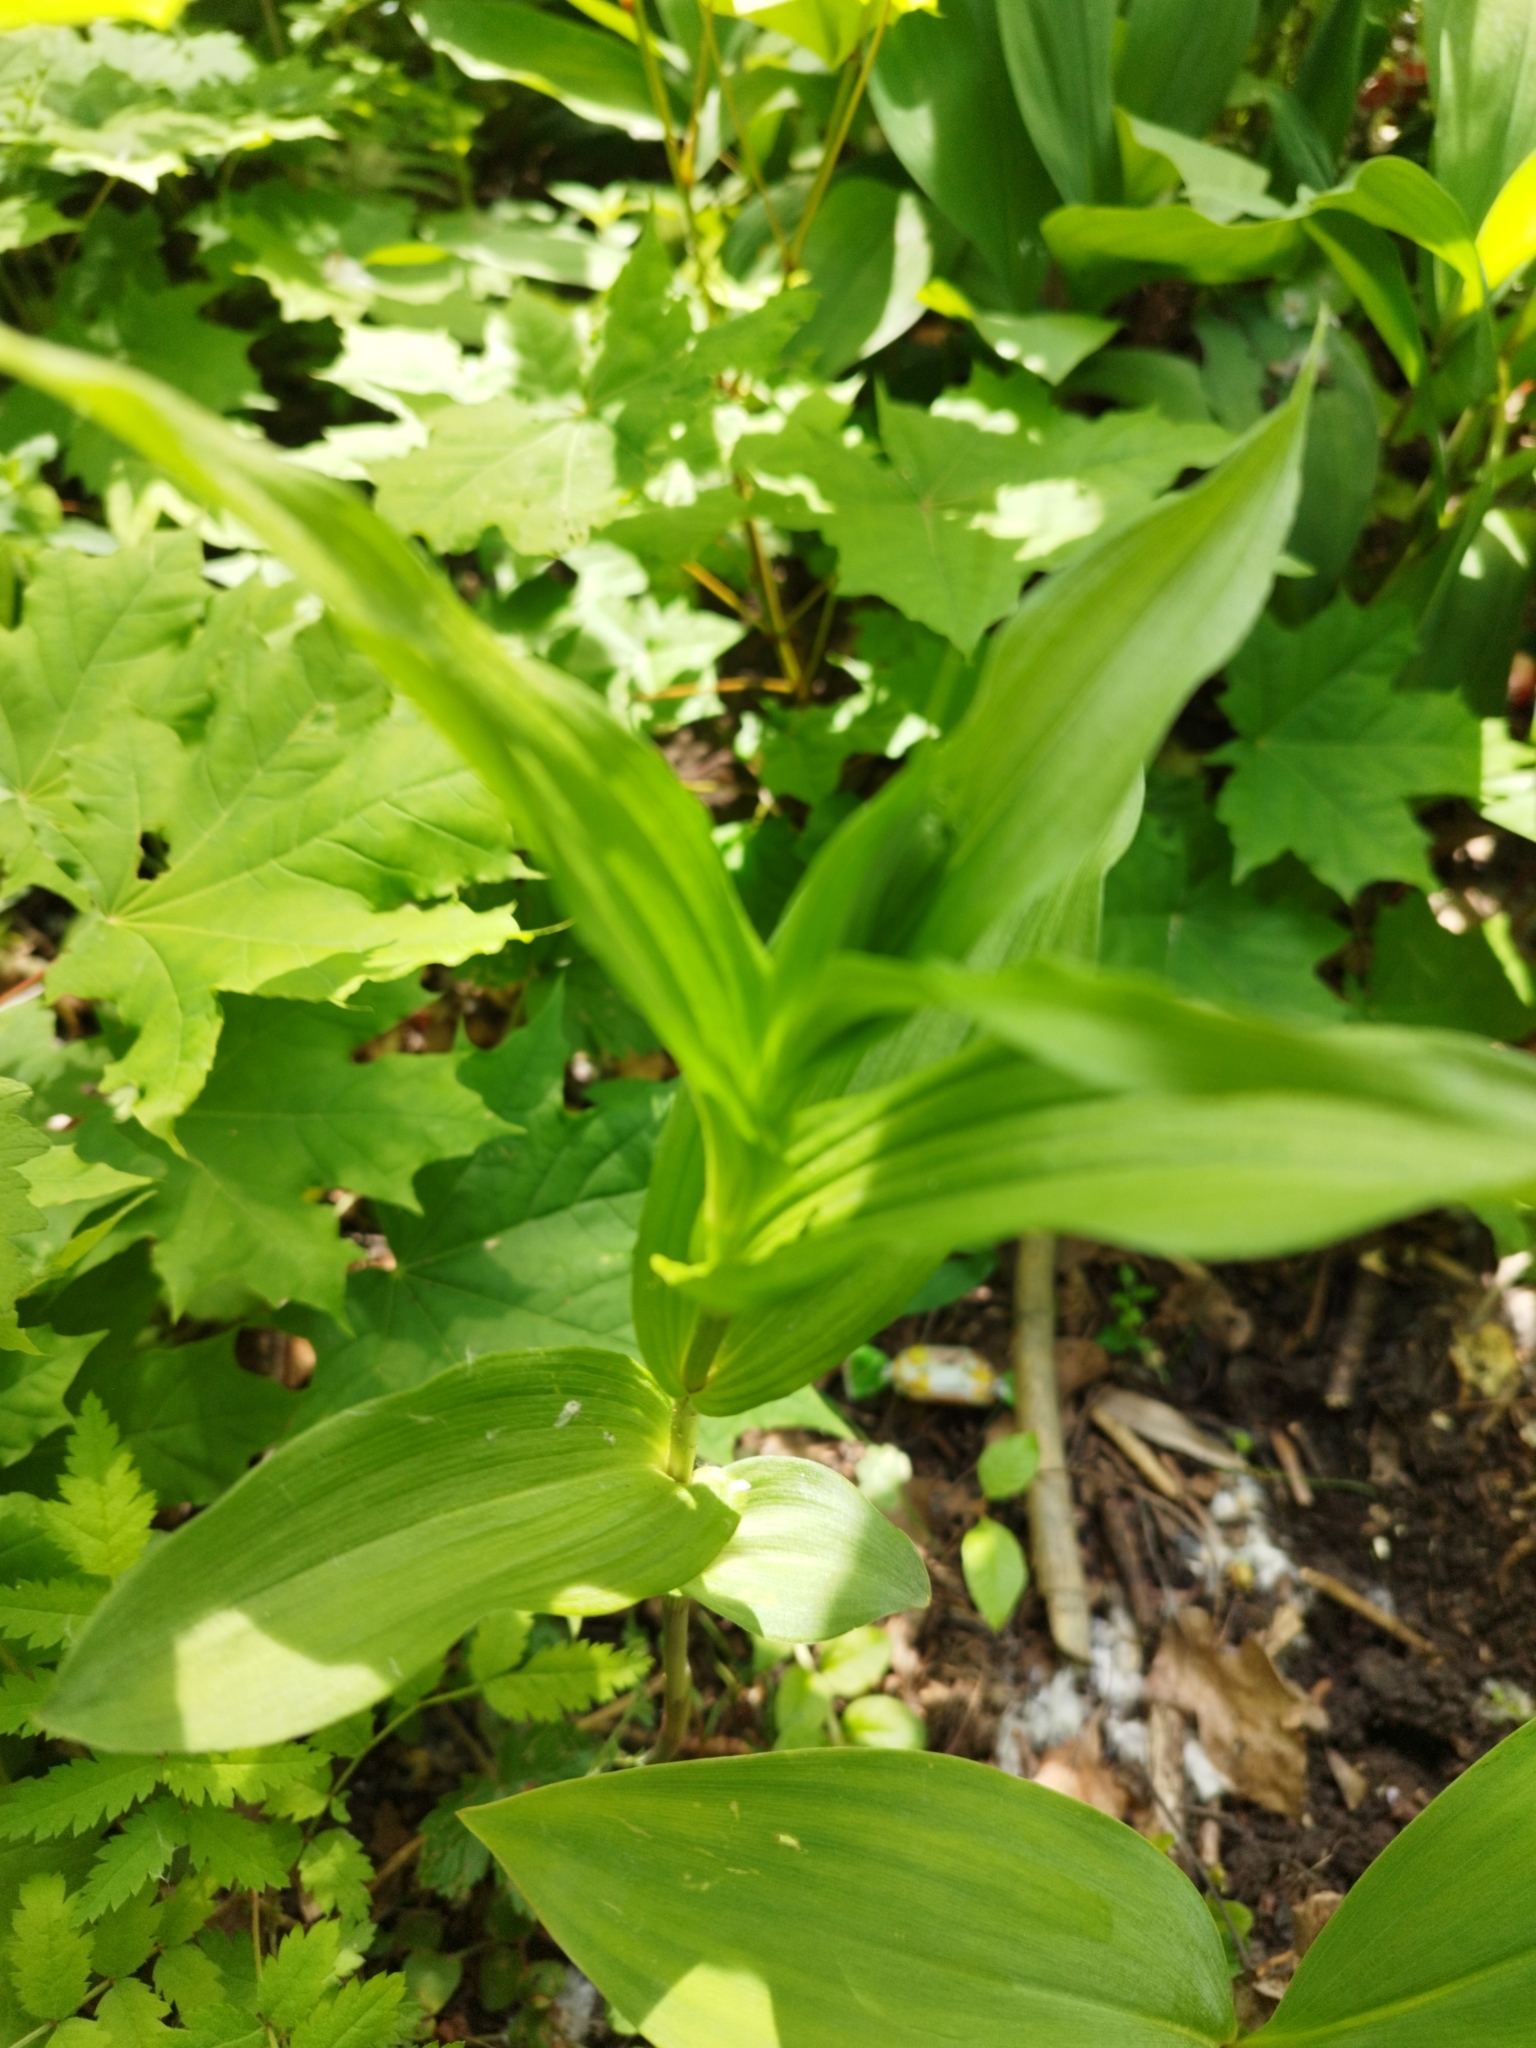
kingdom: Plantae
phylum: Tracheophyta
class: Liliopsida
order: Asparagales
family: Orchidaceae
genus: Epipactis
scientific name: Epipactis helleborine
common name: Broad-leaved helleborine
